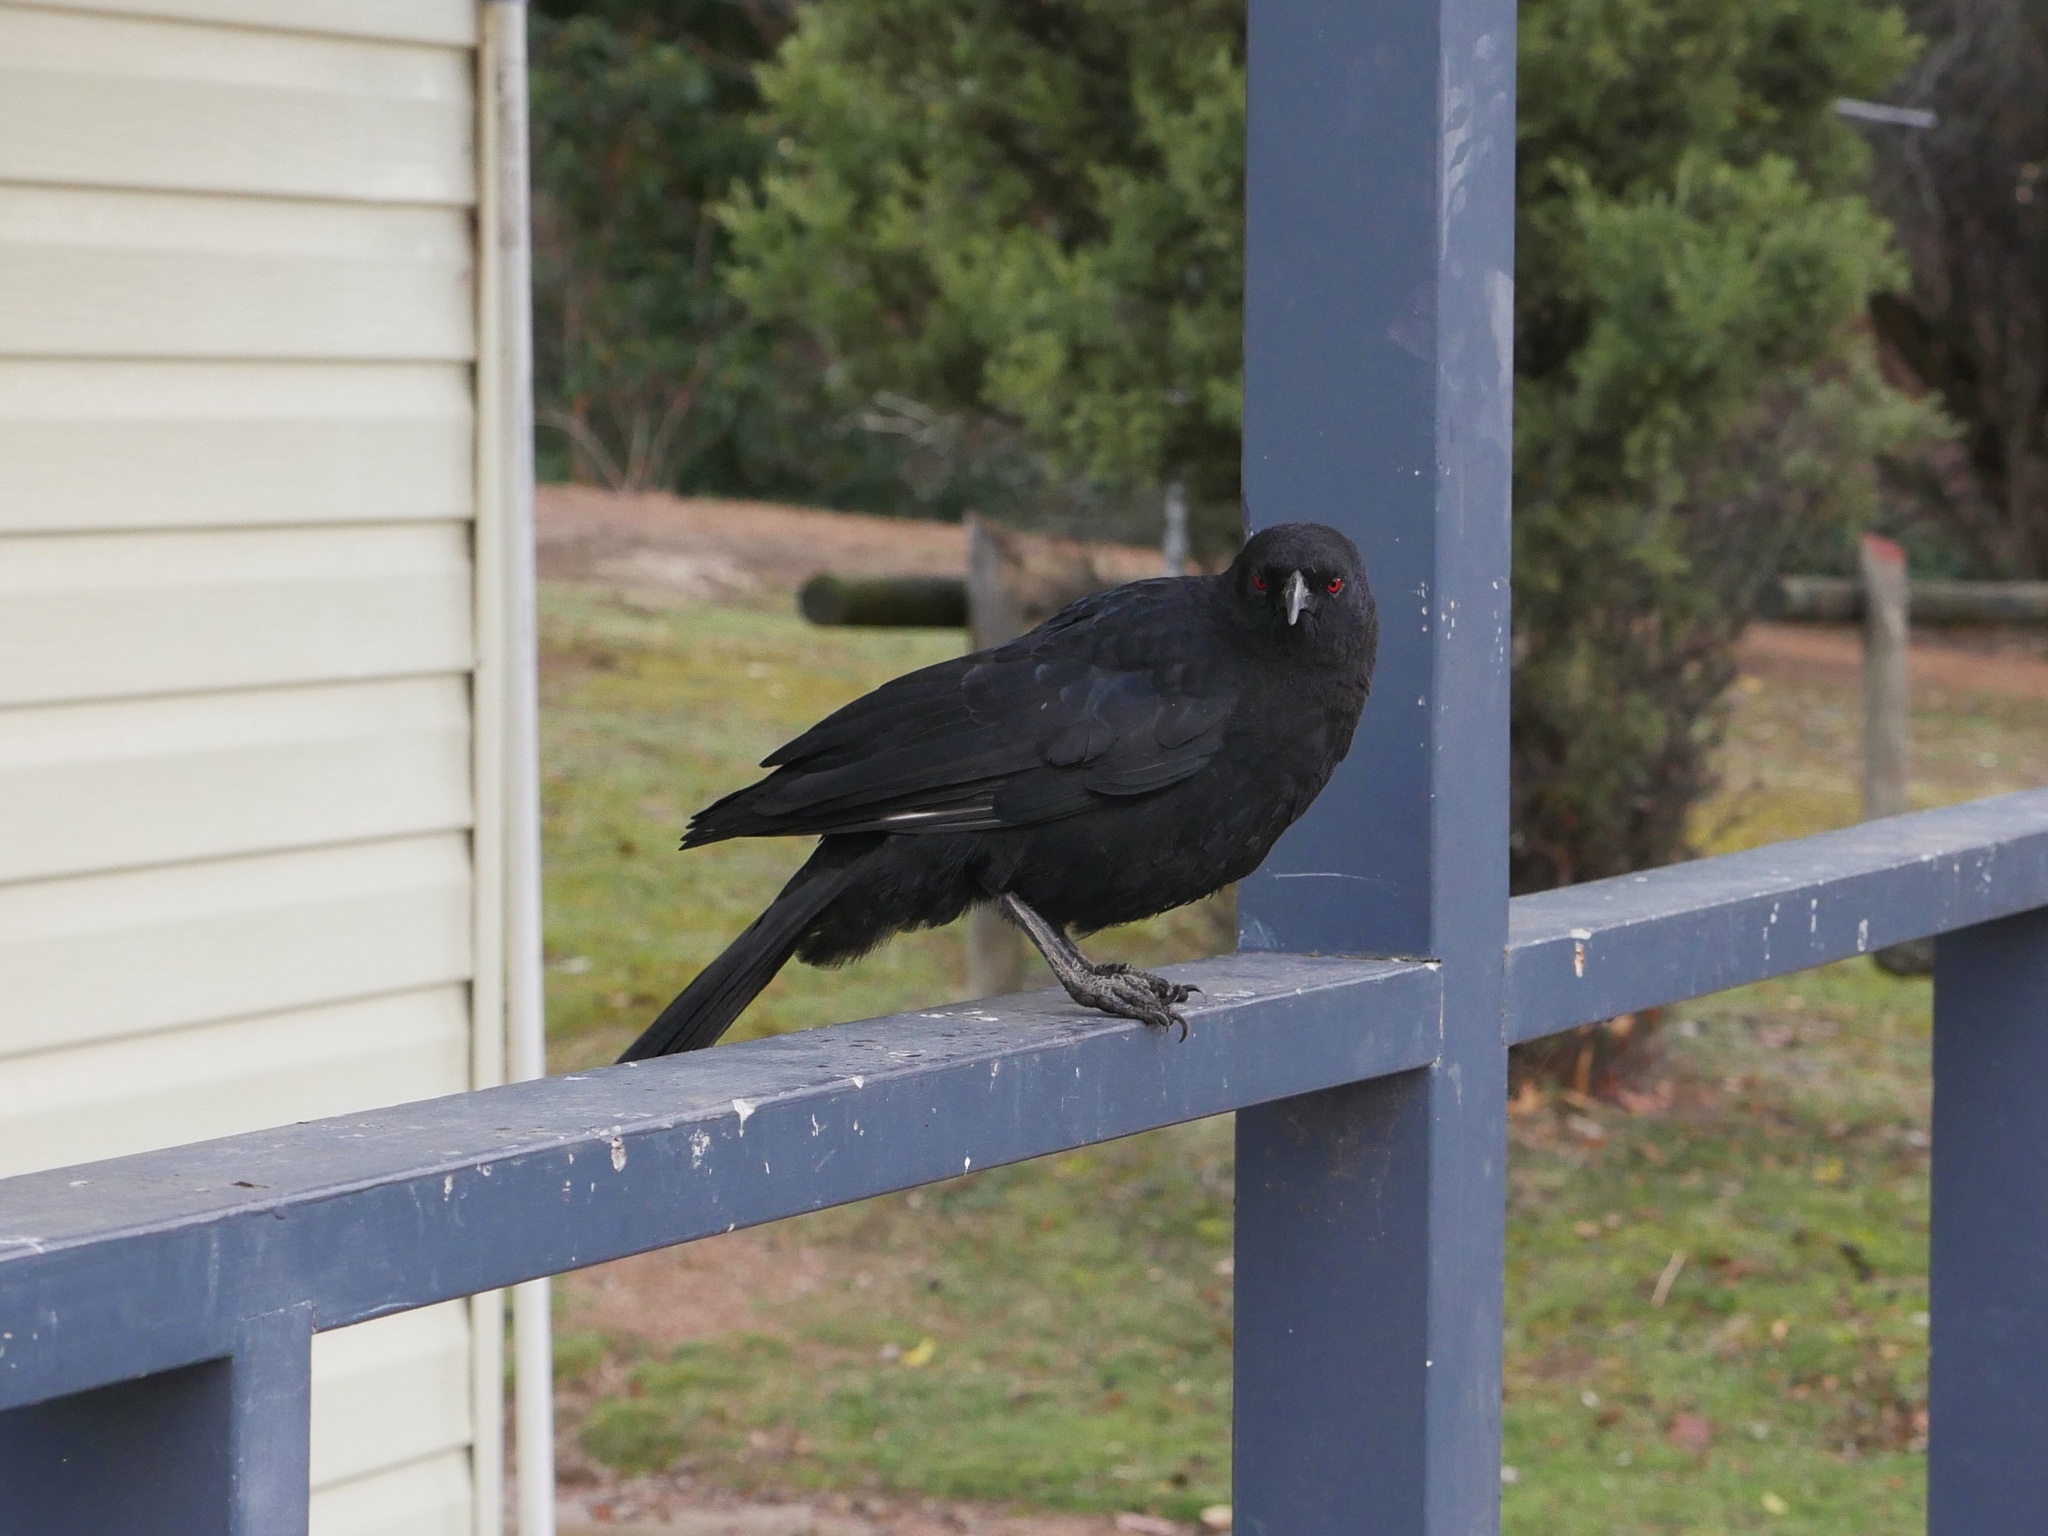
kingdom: Animalia
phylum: Chordata
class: Aves
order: Passeriformes
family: Corcoracidae
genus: Corcorax
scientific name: Corcorax melanoramphos
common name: White-winged chough
